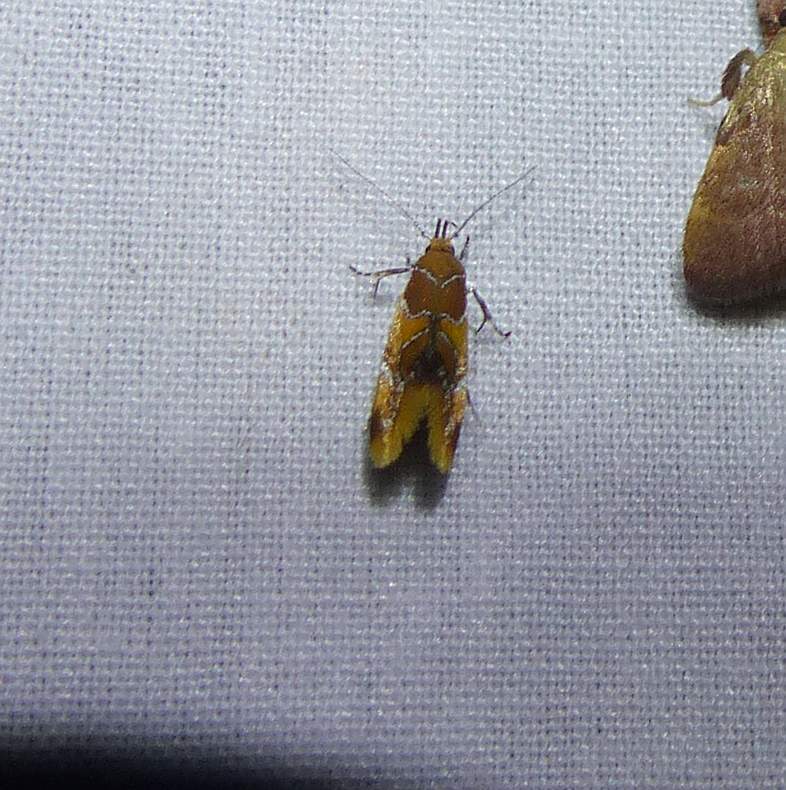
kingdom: Animalia
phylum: Arthropoda
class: Insecta
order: Lepidoptera
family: Oecophoridae
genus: Callima
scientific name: Callima argenticinctella
